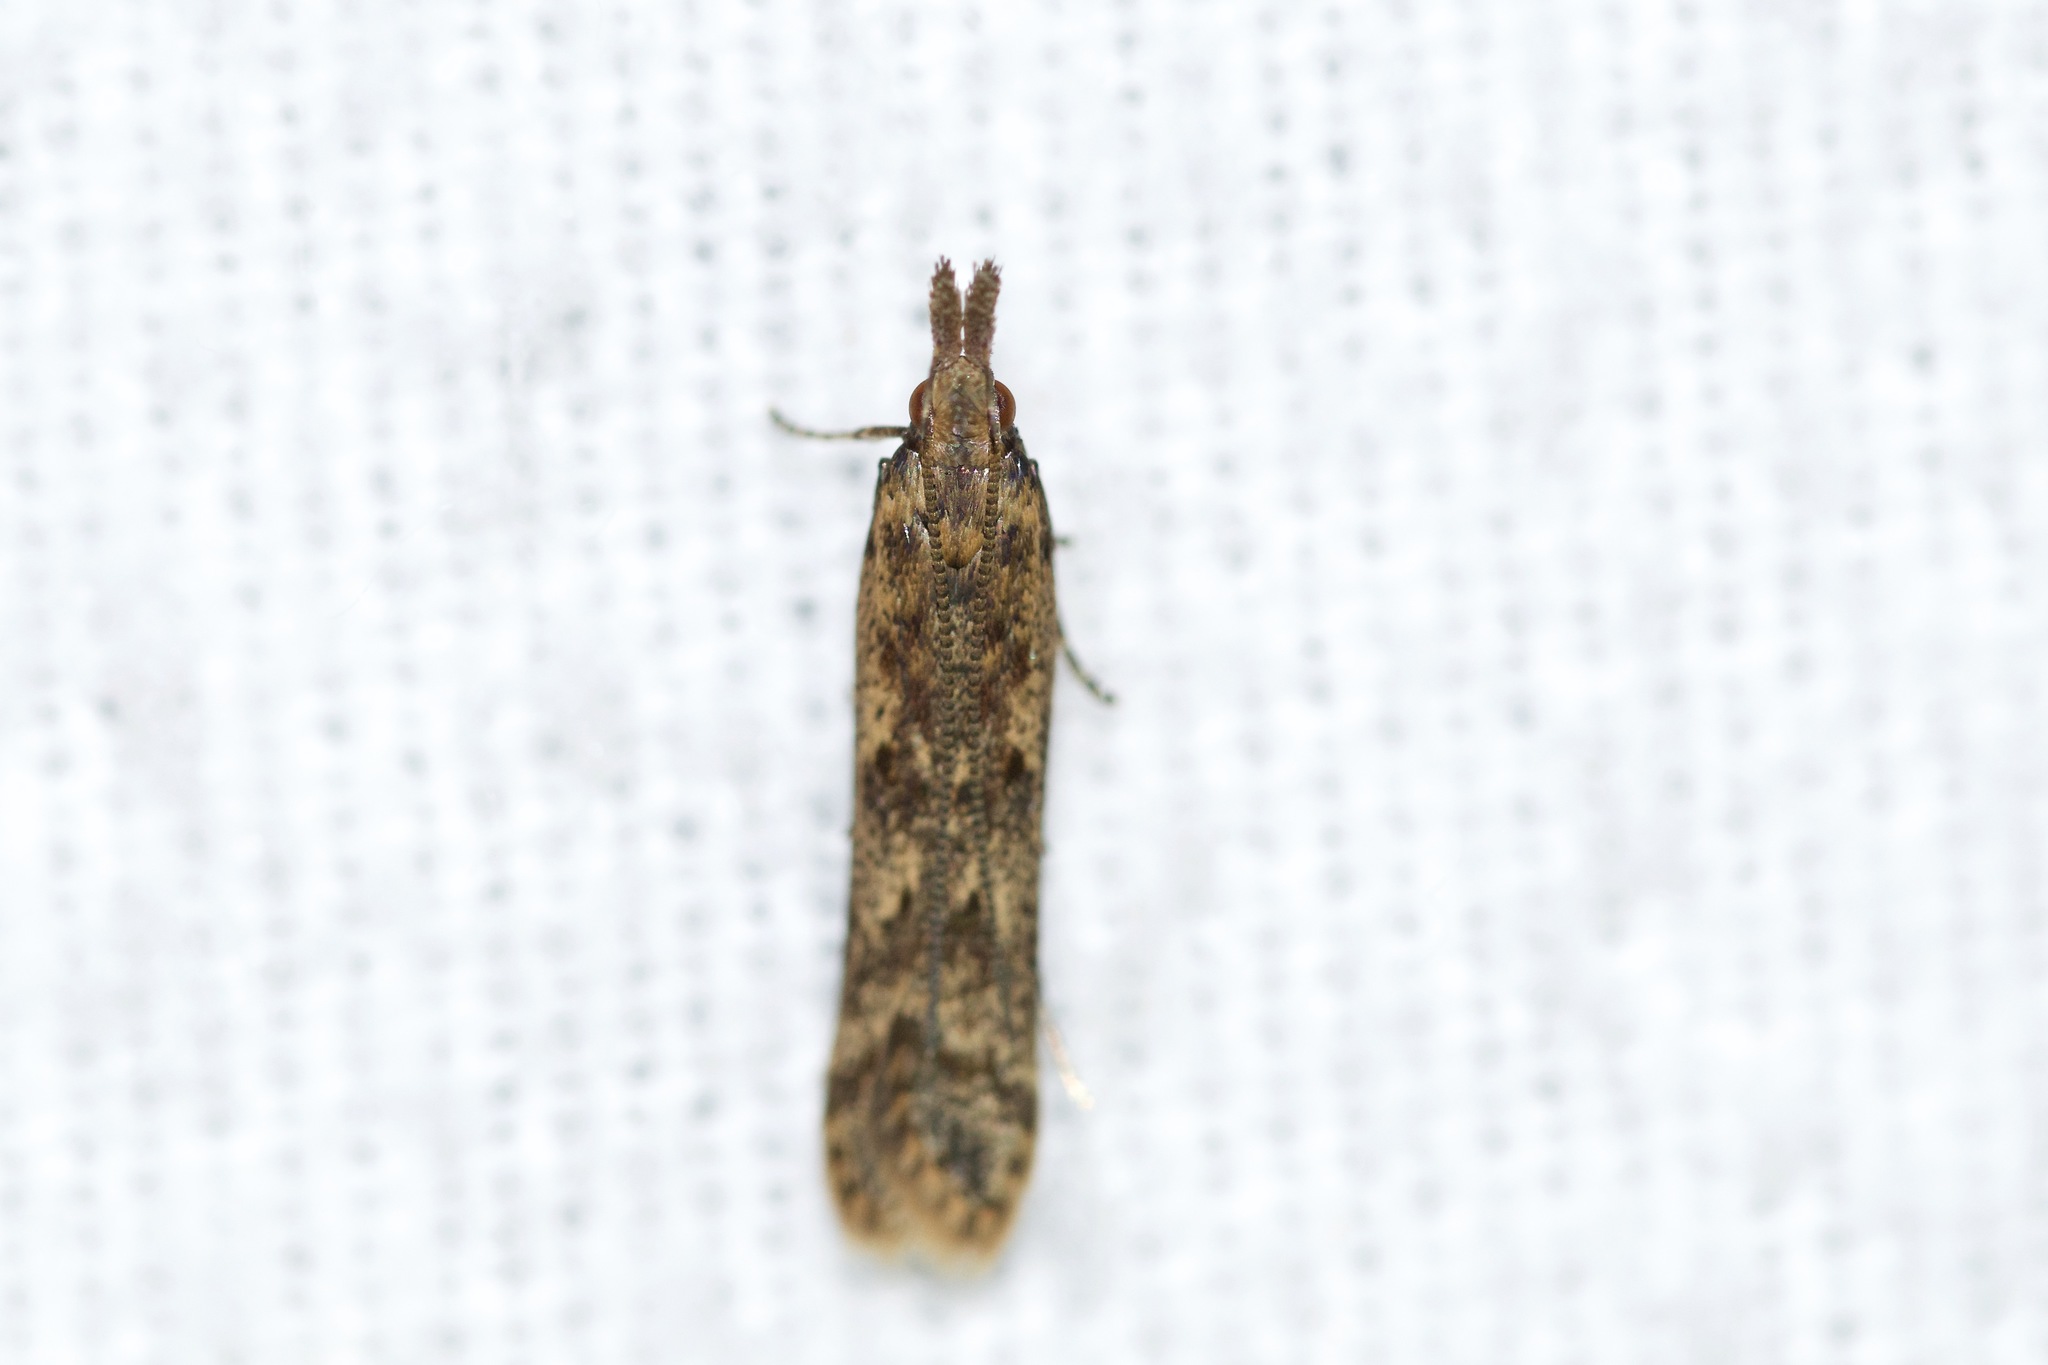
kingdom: Animalia
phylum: Arthropoda
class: Insecta
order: Lepidoptera
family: Gelechiidae
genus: Dichomeris
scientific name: Dichomeris ligulella
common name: Moth
